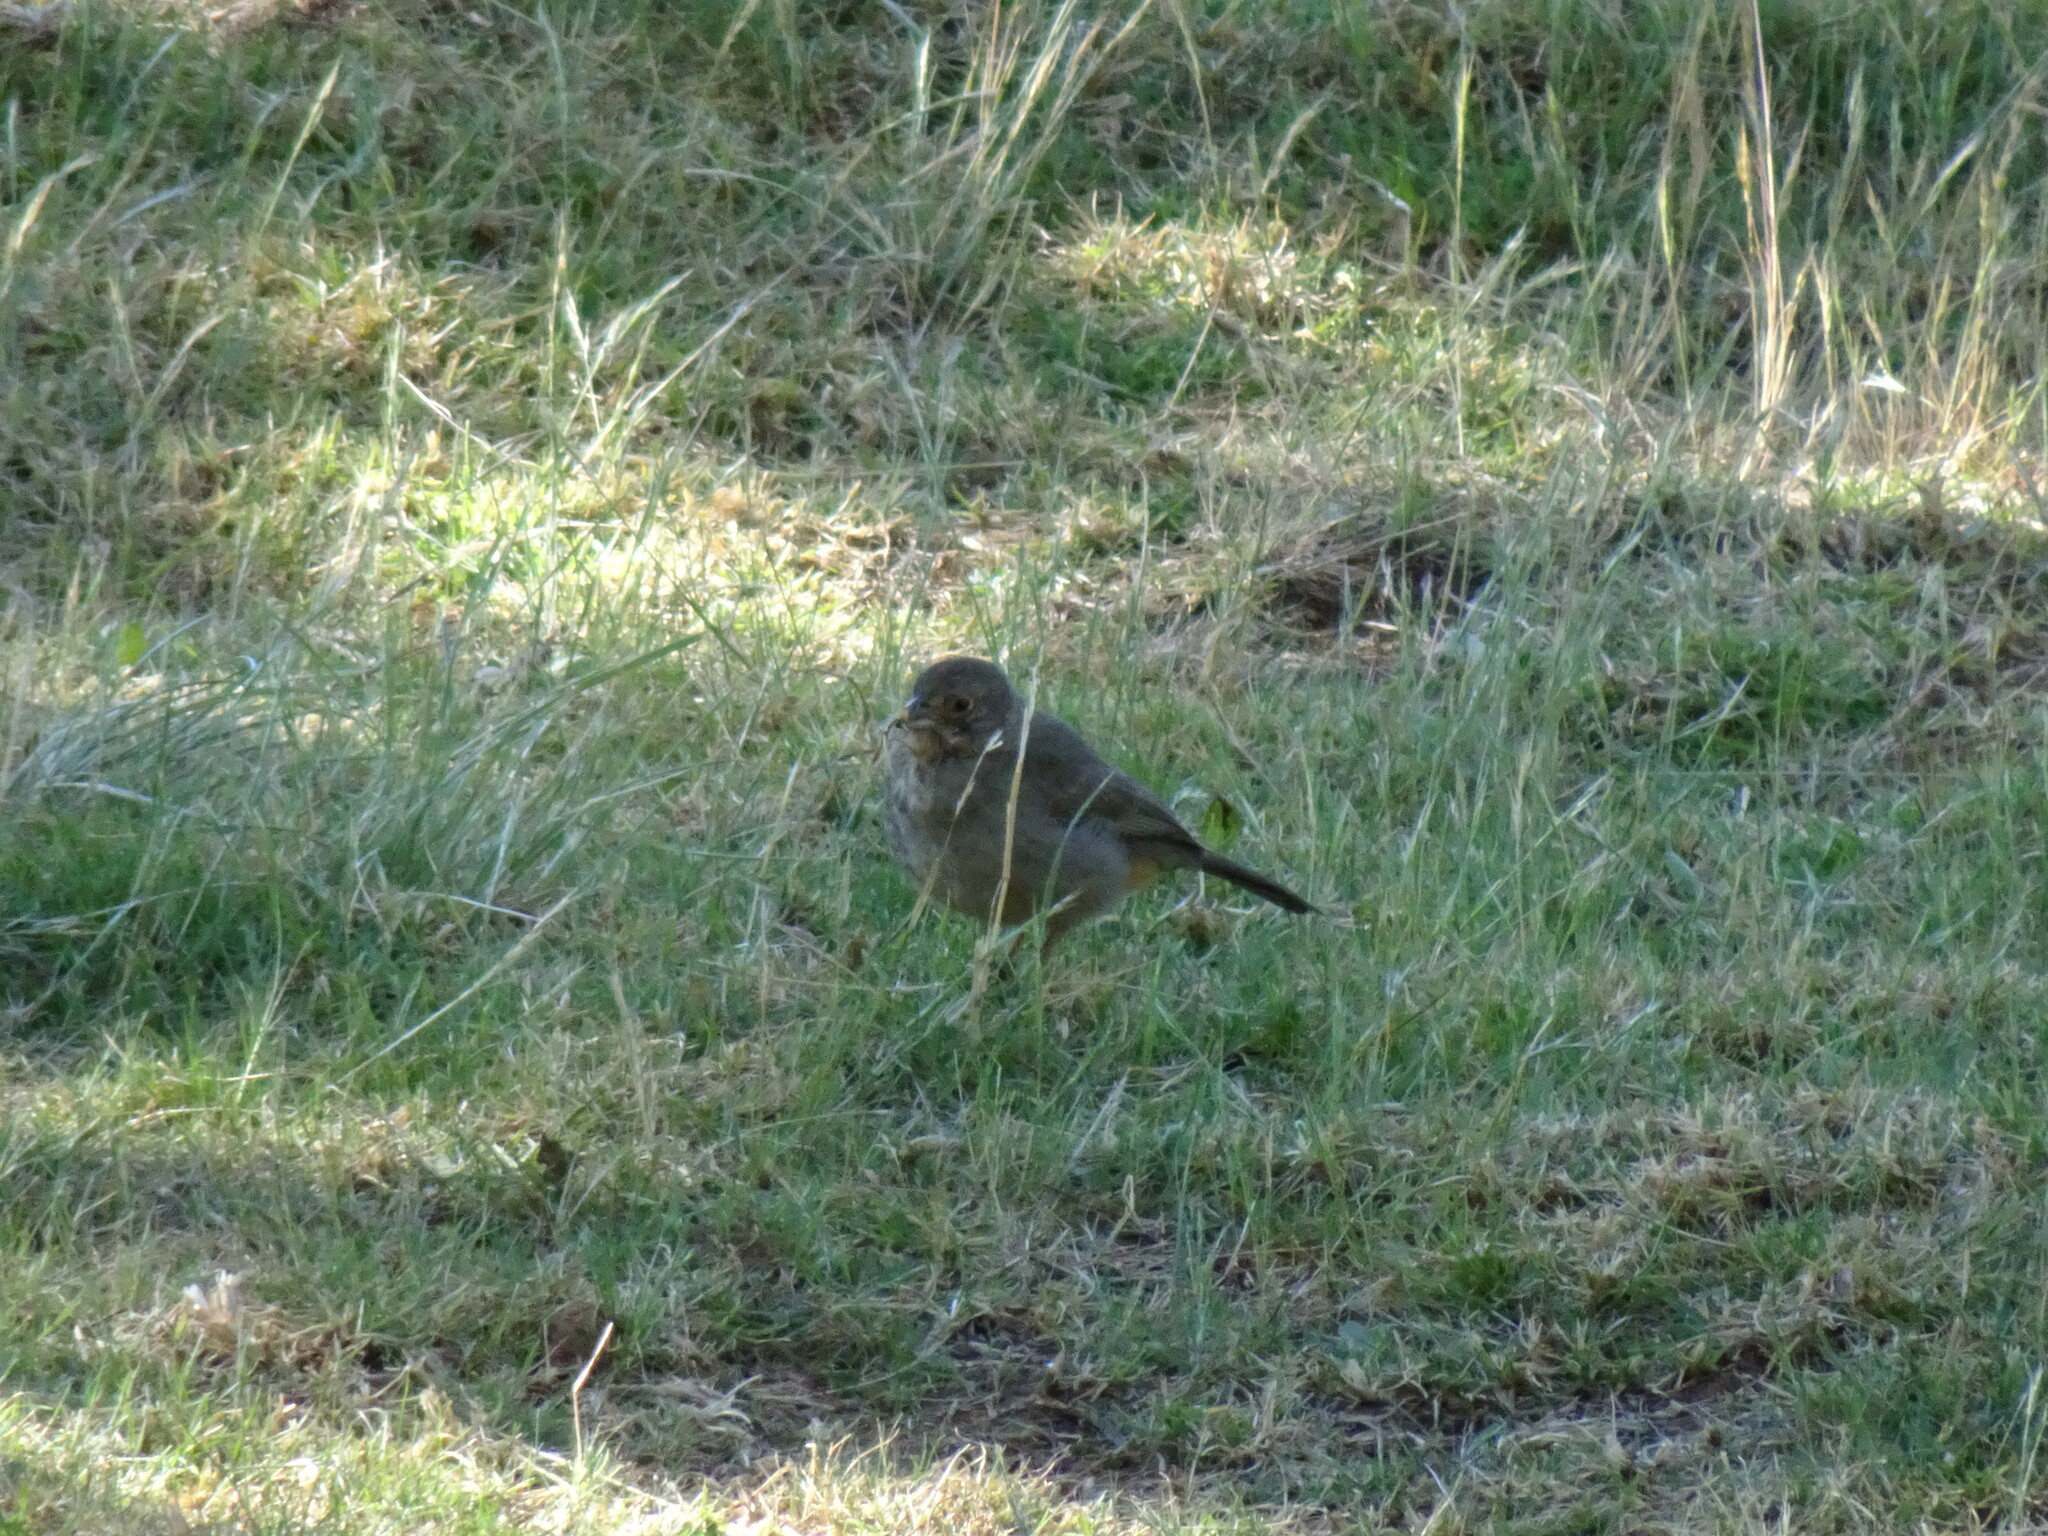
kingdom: Animalia
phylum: Chordata
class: Aves
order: Passeriformes
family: Passerellidae
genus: Melozone
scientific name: Melozone fusca
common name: Canyon towhee
